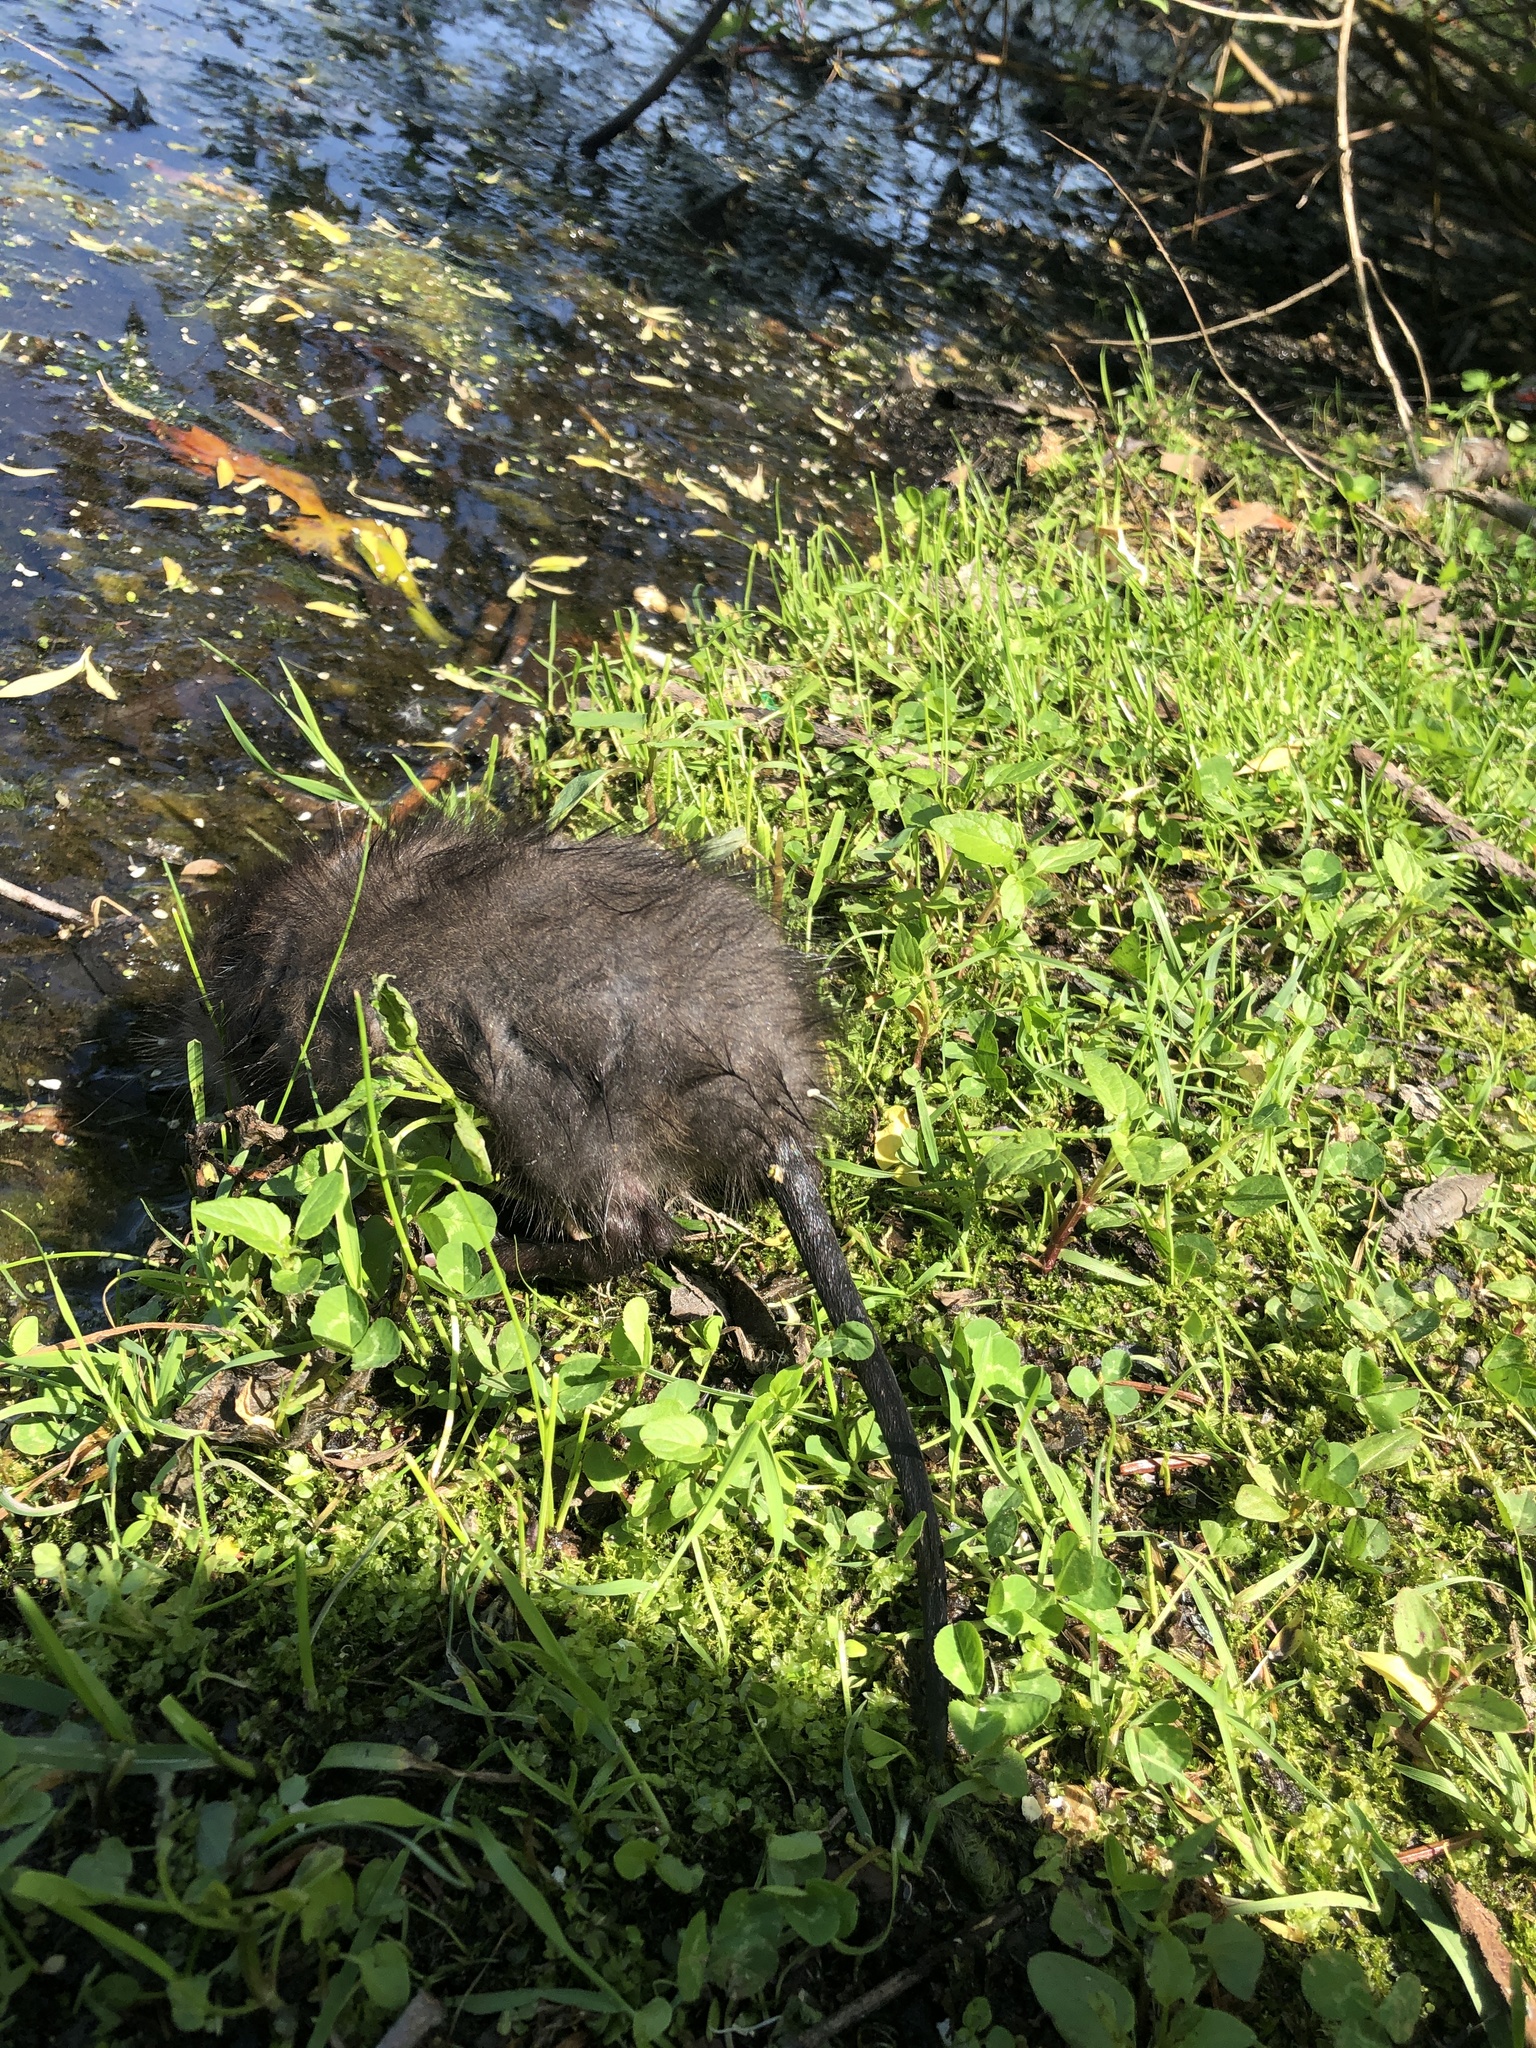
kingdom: Animalia
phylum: Chordata
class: Mammalia
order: Rodentia
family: Cricetidae
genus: Ondatra
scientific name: Ondatra zibethicus
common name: Muskrat
